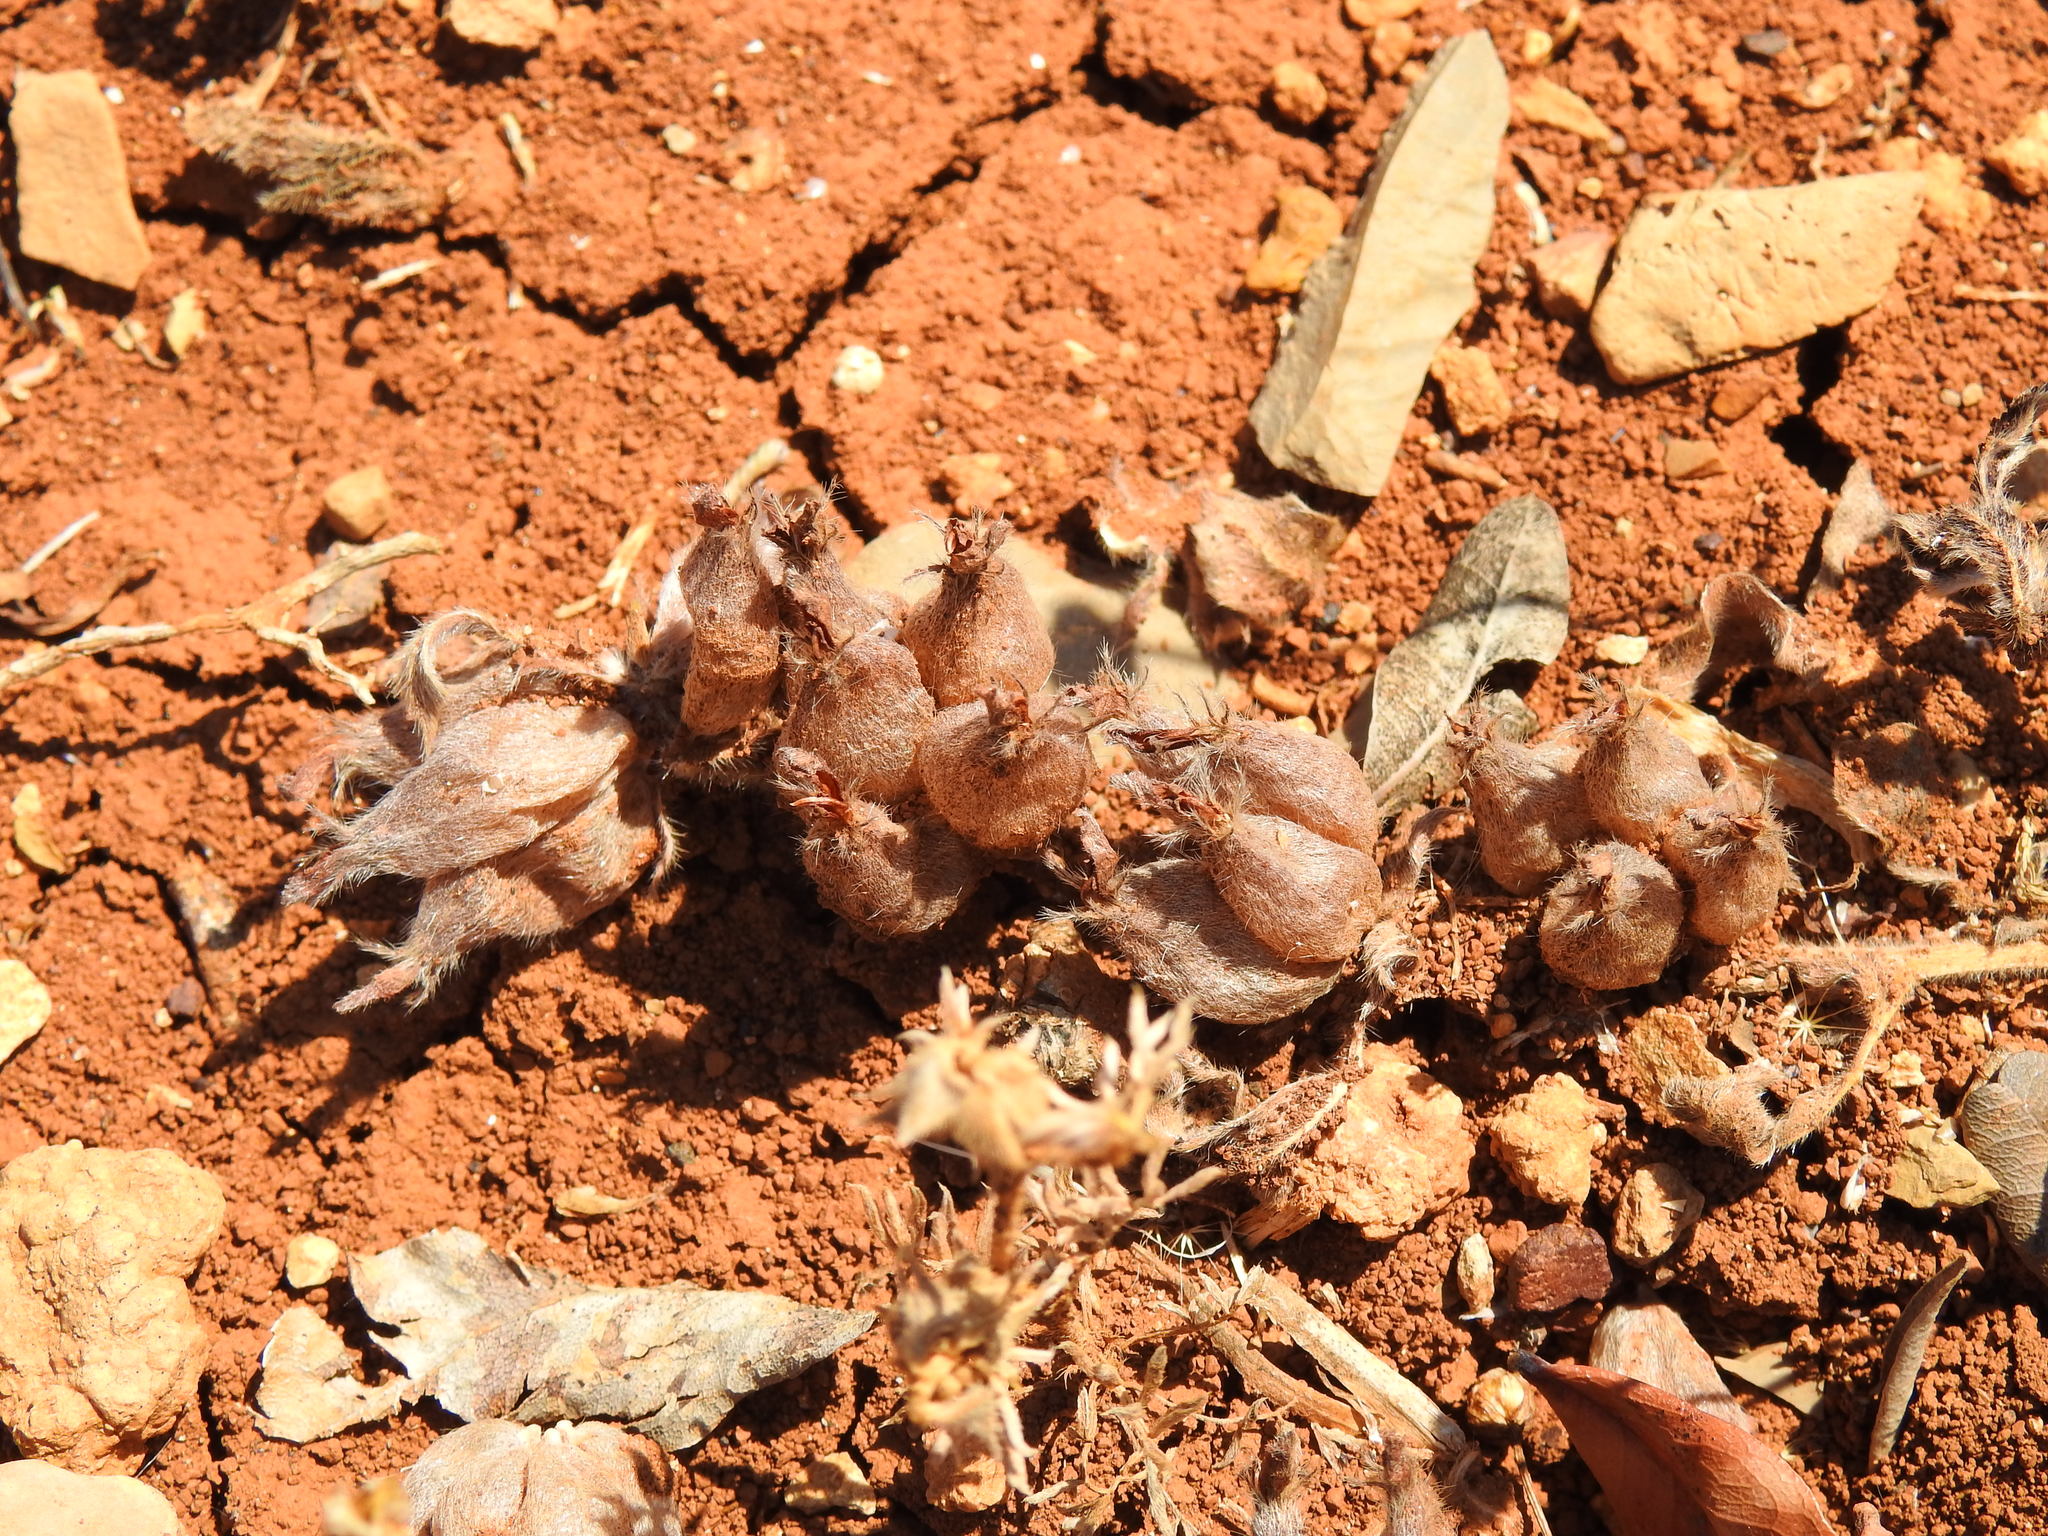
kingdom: Plantae
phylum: Tracheophyta
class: Magnoliopsida
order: Fabales
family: Fabaceae
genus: Tripodion
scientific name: Tripodion tetraphyllum
